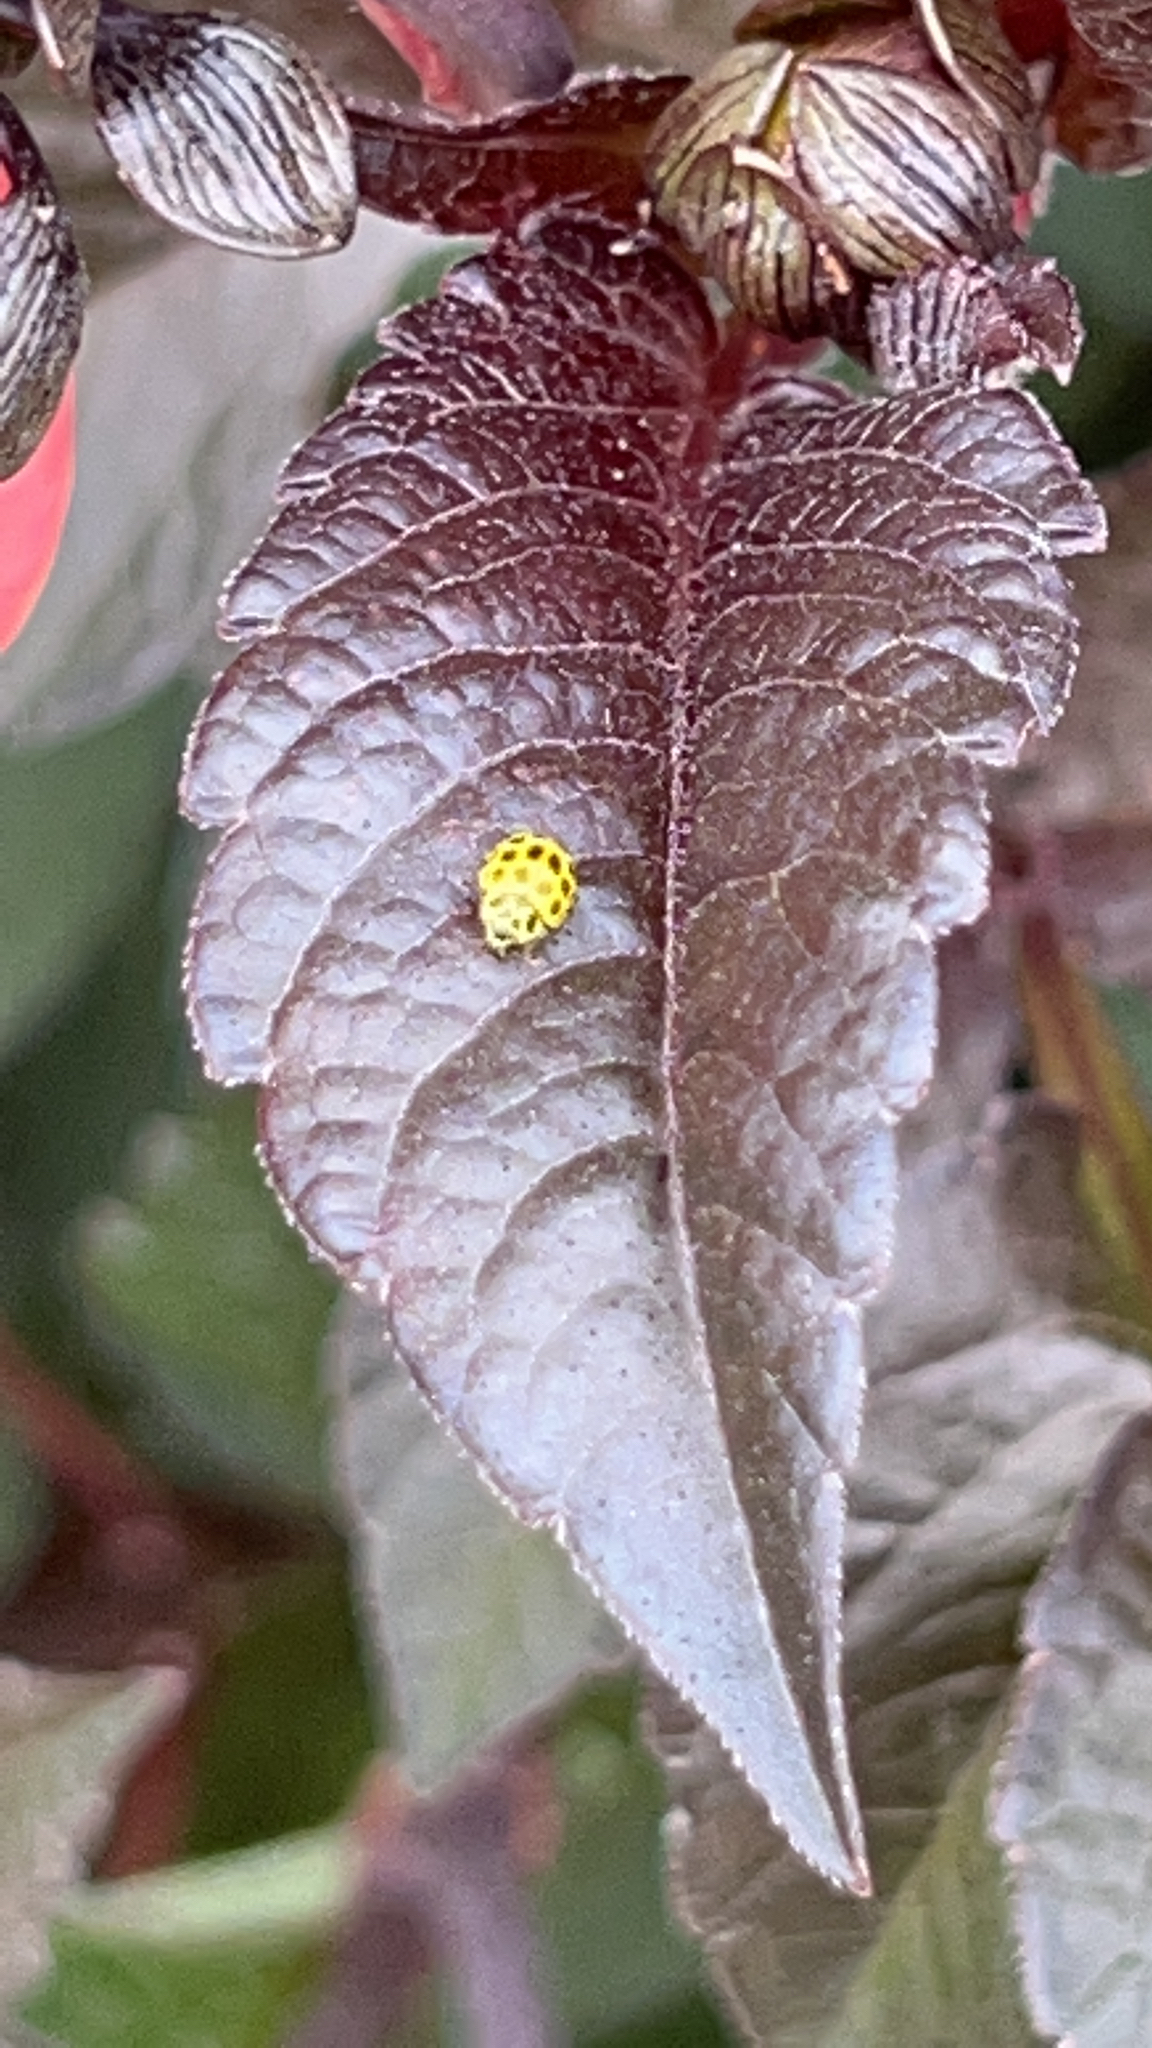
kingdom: Animalia
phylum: Arthropoda
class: Insecta
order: Coleoptera
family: Coccinellidae
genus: Psyllobora
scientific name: Psyllobora vigintiduopunctata
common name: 22-spot ladybird
